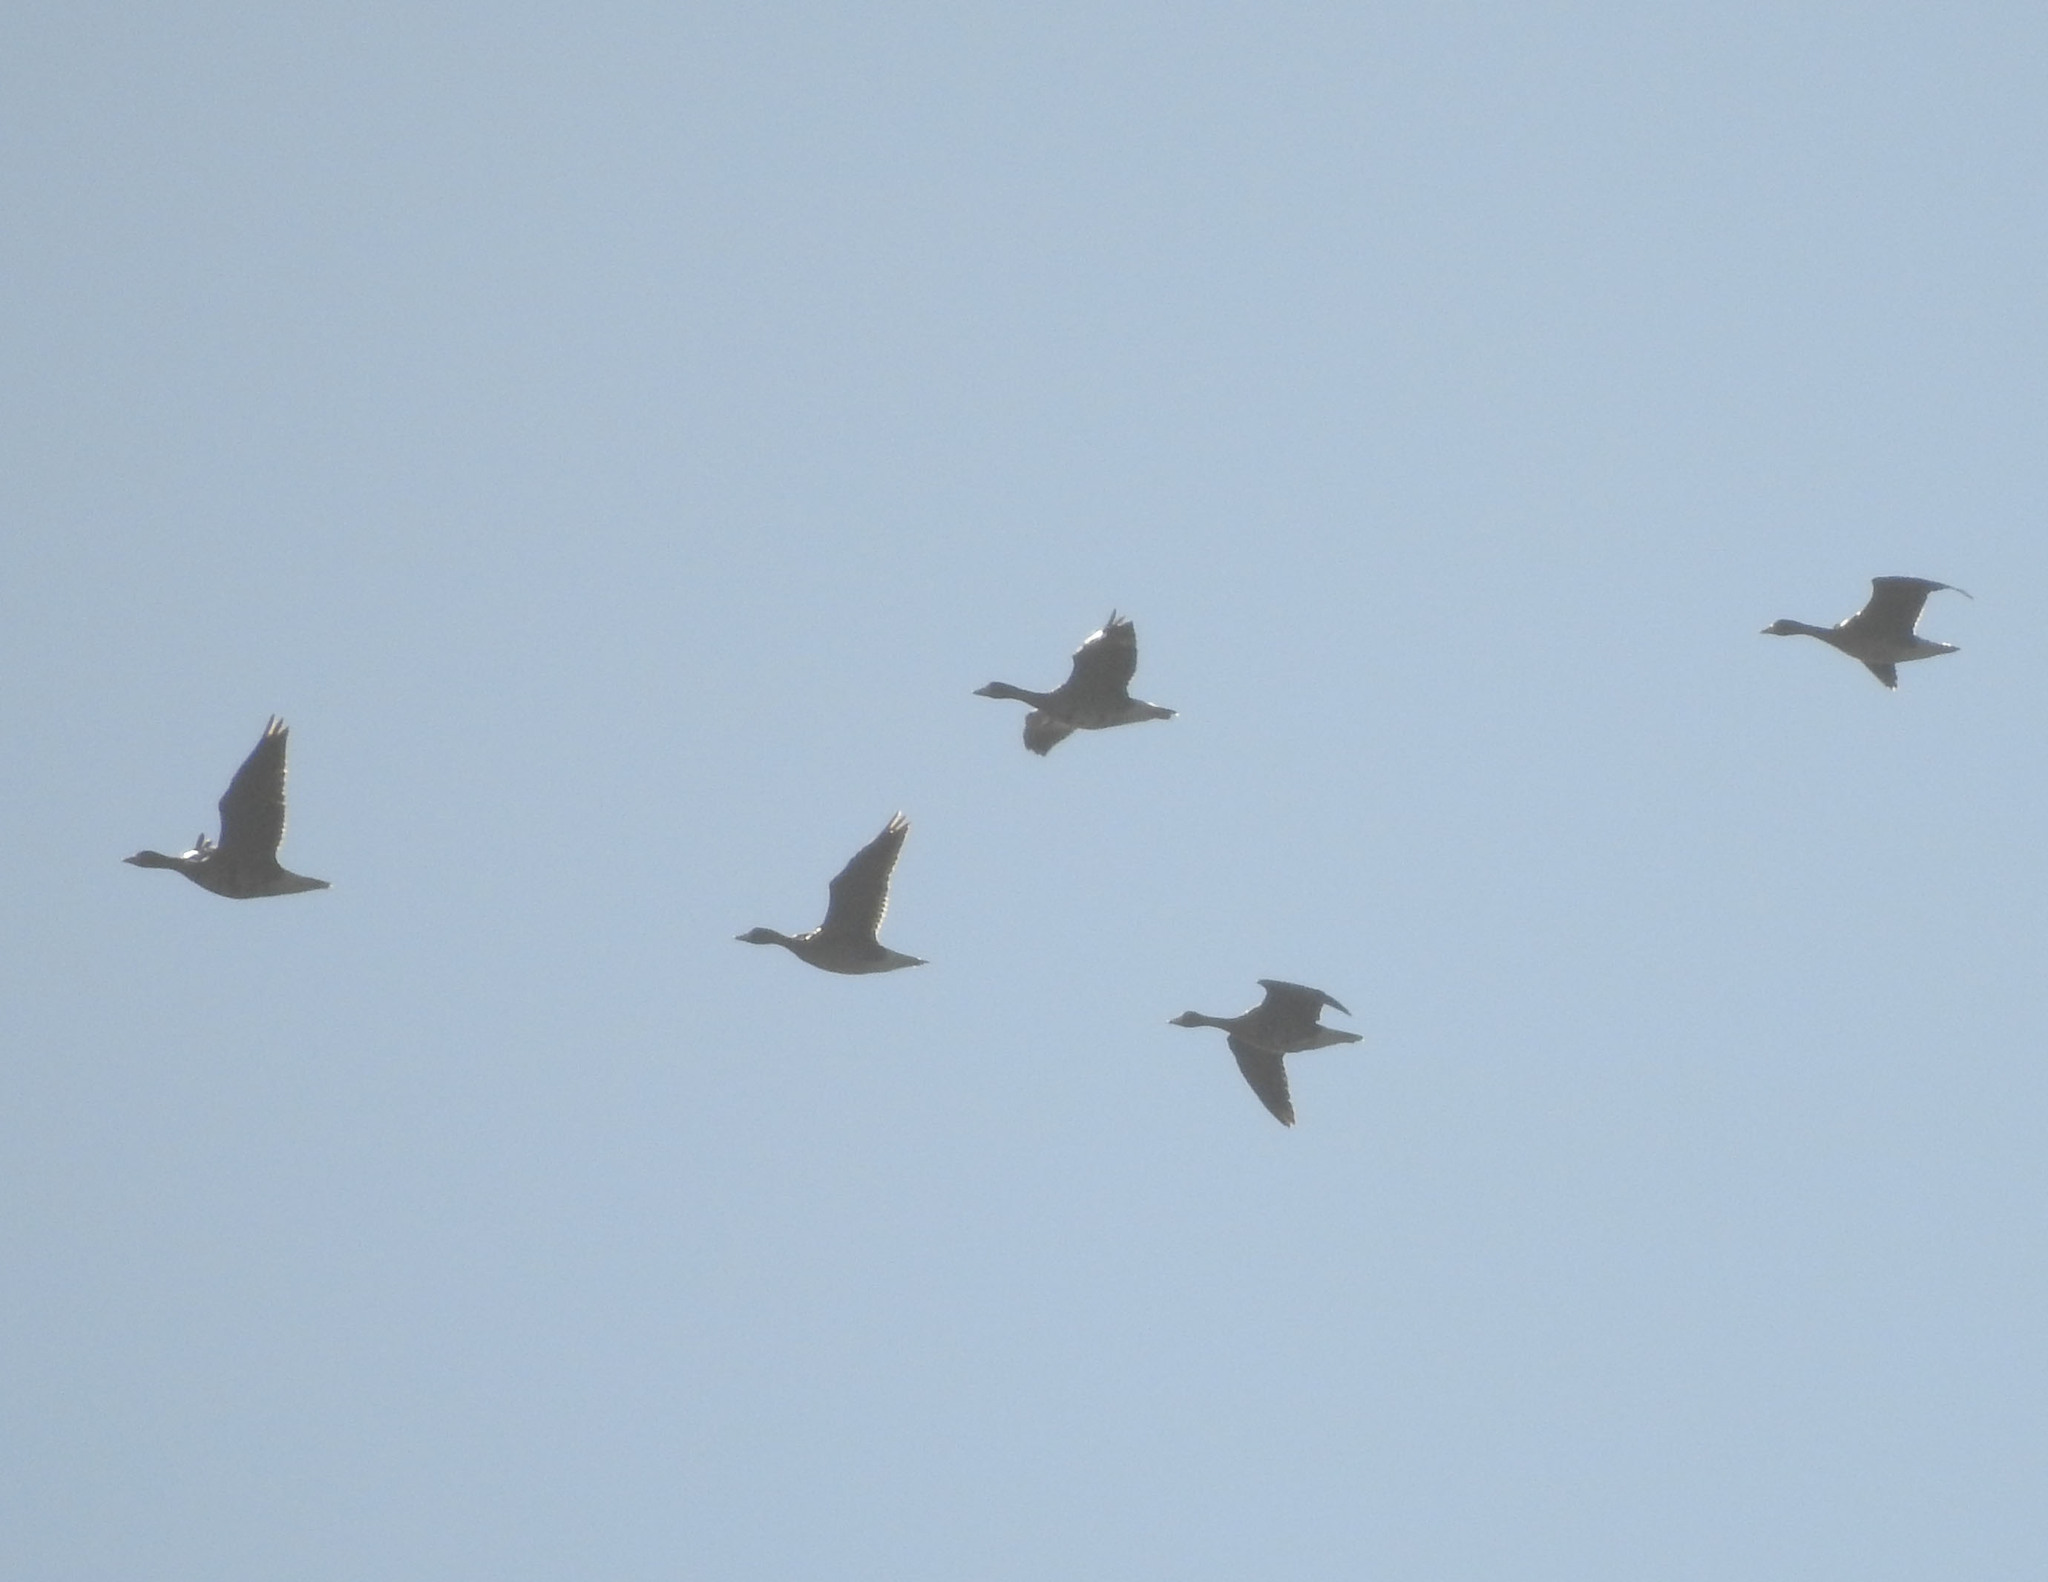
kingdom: Animalia
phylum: Chordata
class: Aves
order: Anseriformes
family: Anatidae
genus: Anser
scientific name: Anser albifrons
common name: Greater white-fronted goose
